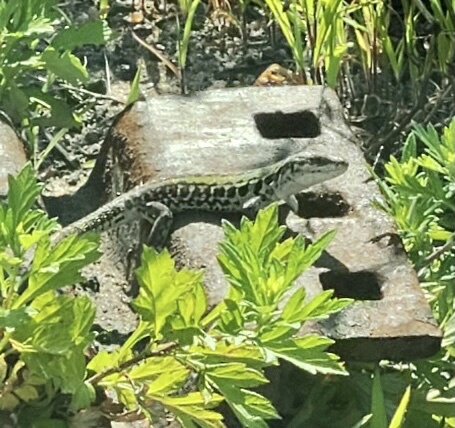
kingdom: Animalia
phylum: Chordata
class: Squamata
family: Lacertidae
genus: Podarcis
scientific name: Podarcis siculus
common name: Italian wall lizard
